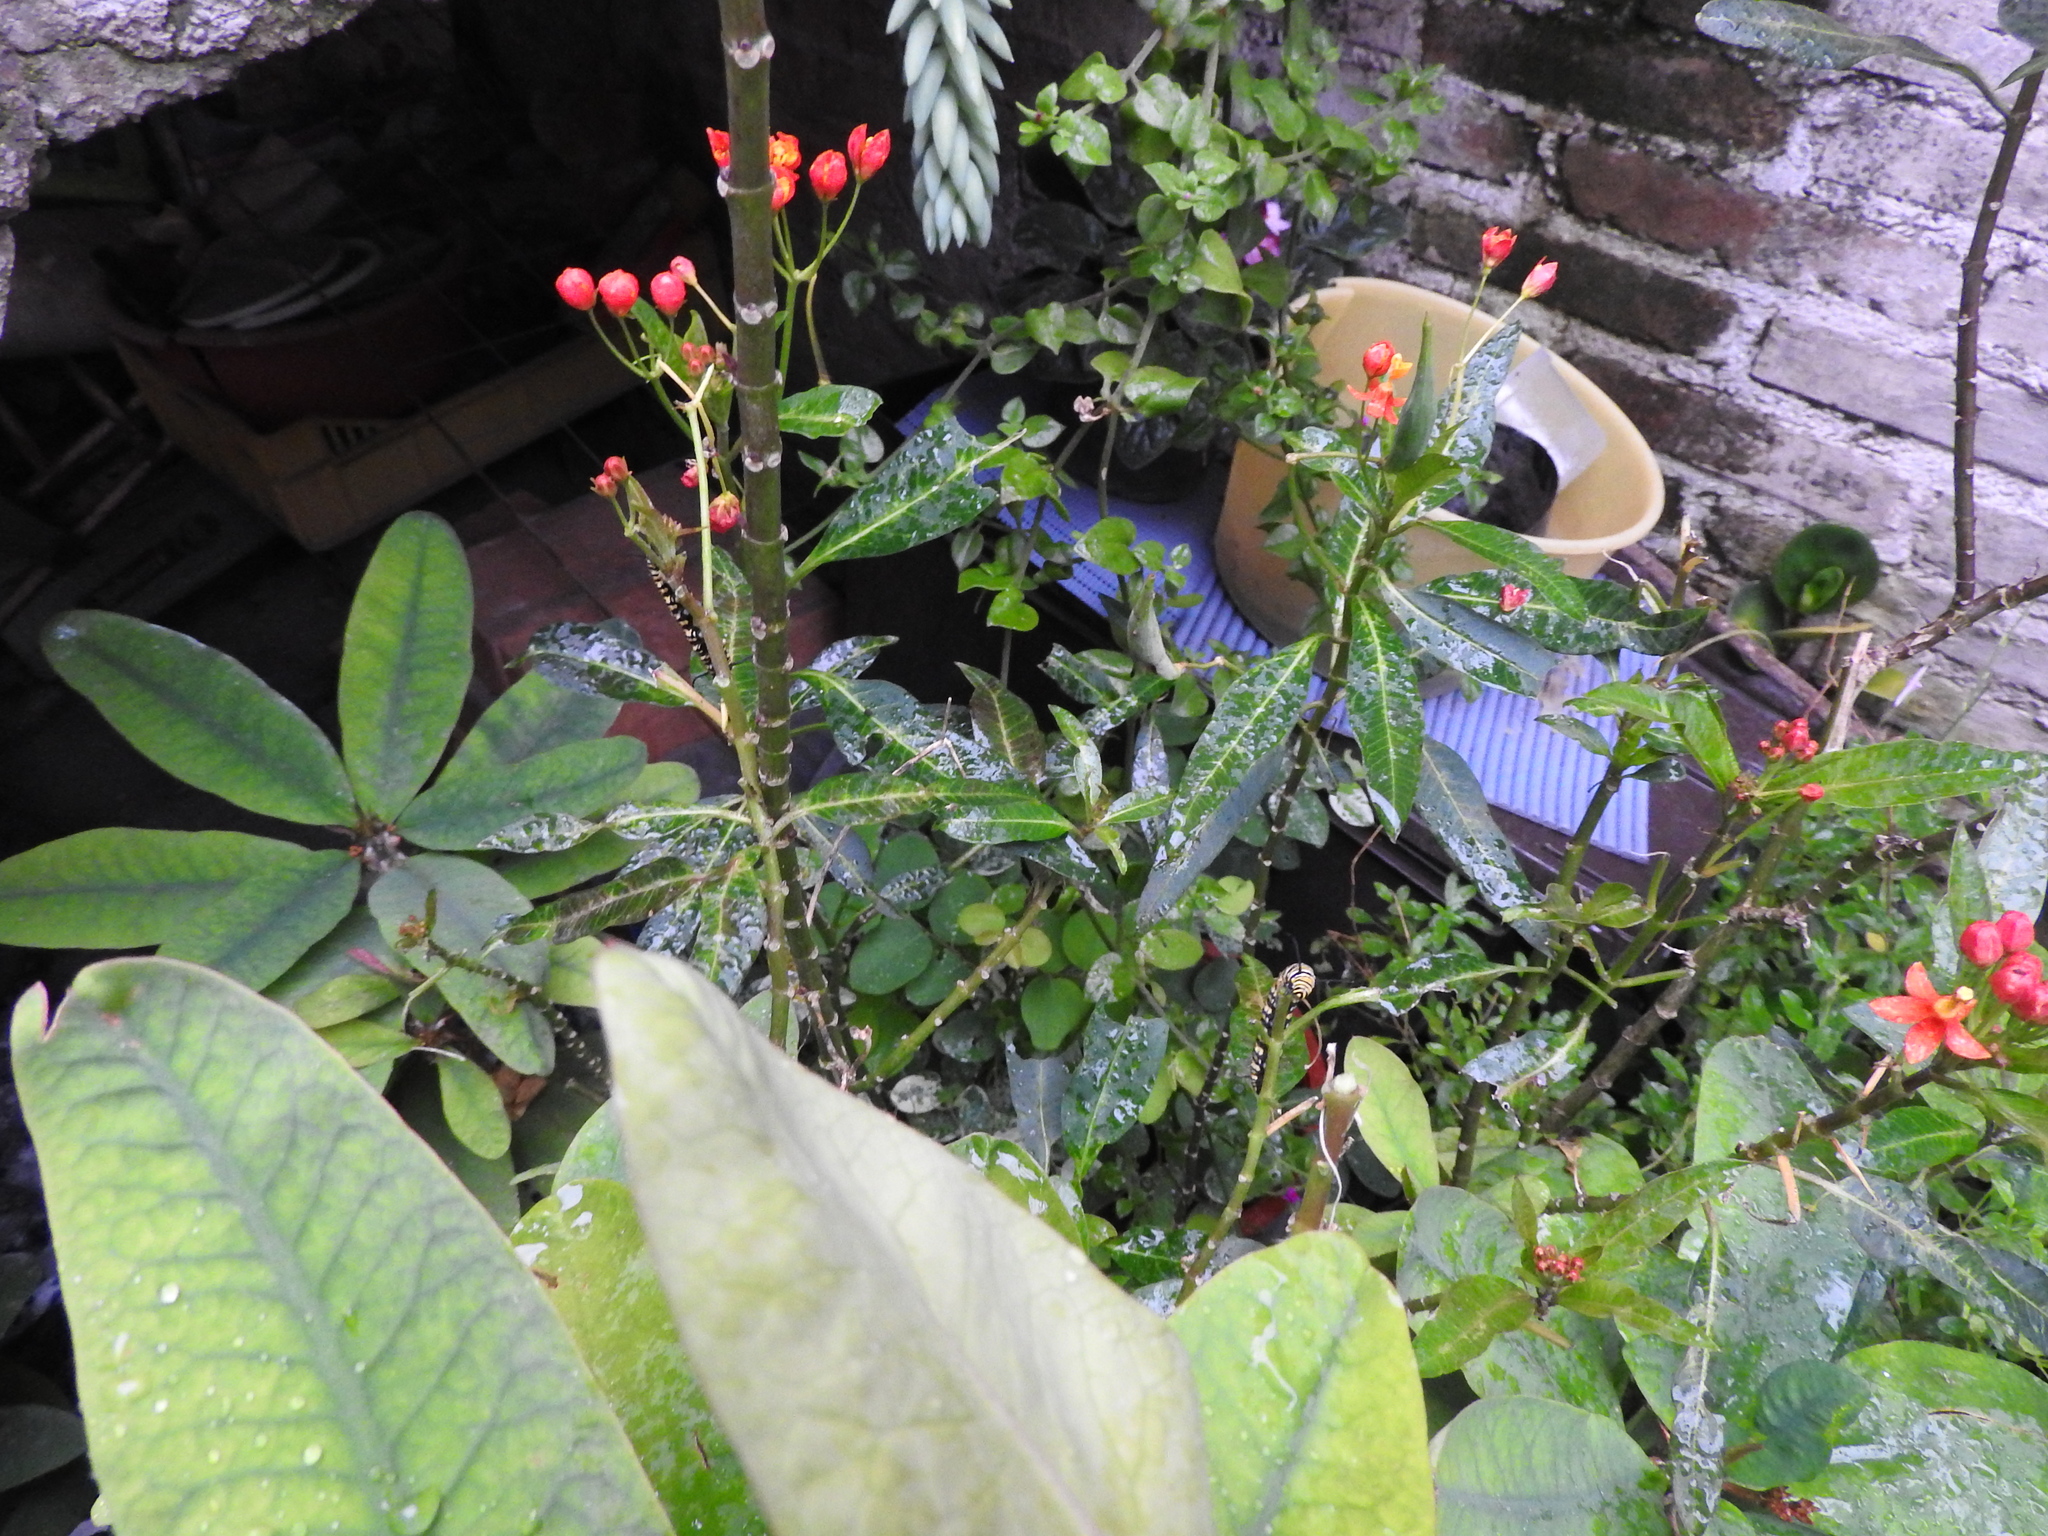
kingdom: Animalia
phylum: Arthropoda
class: Insecta
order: Lepidoptera
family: Nymphalidae
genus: Danaus
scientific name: Danaus plexippus
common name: Monarch
